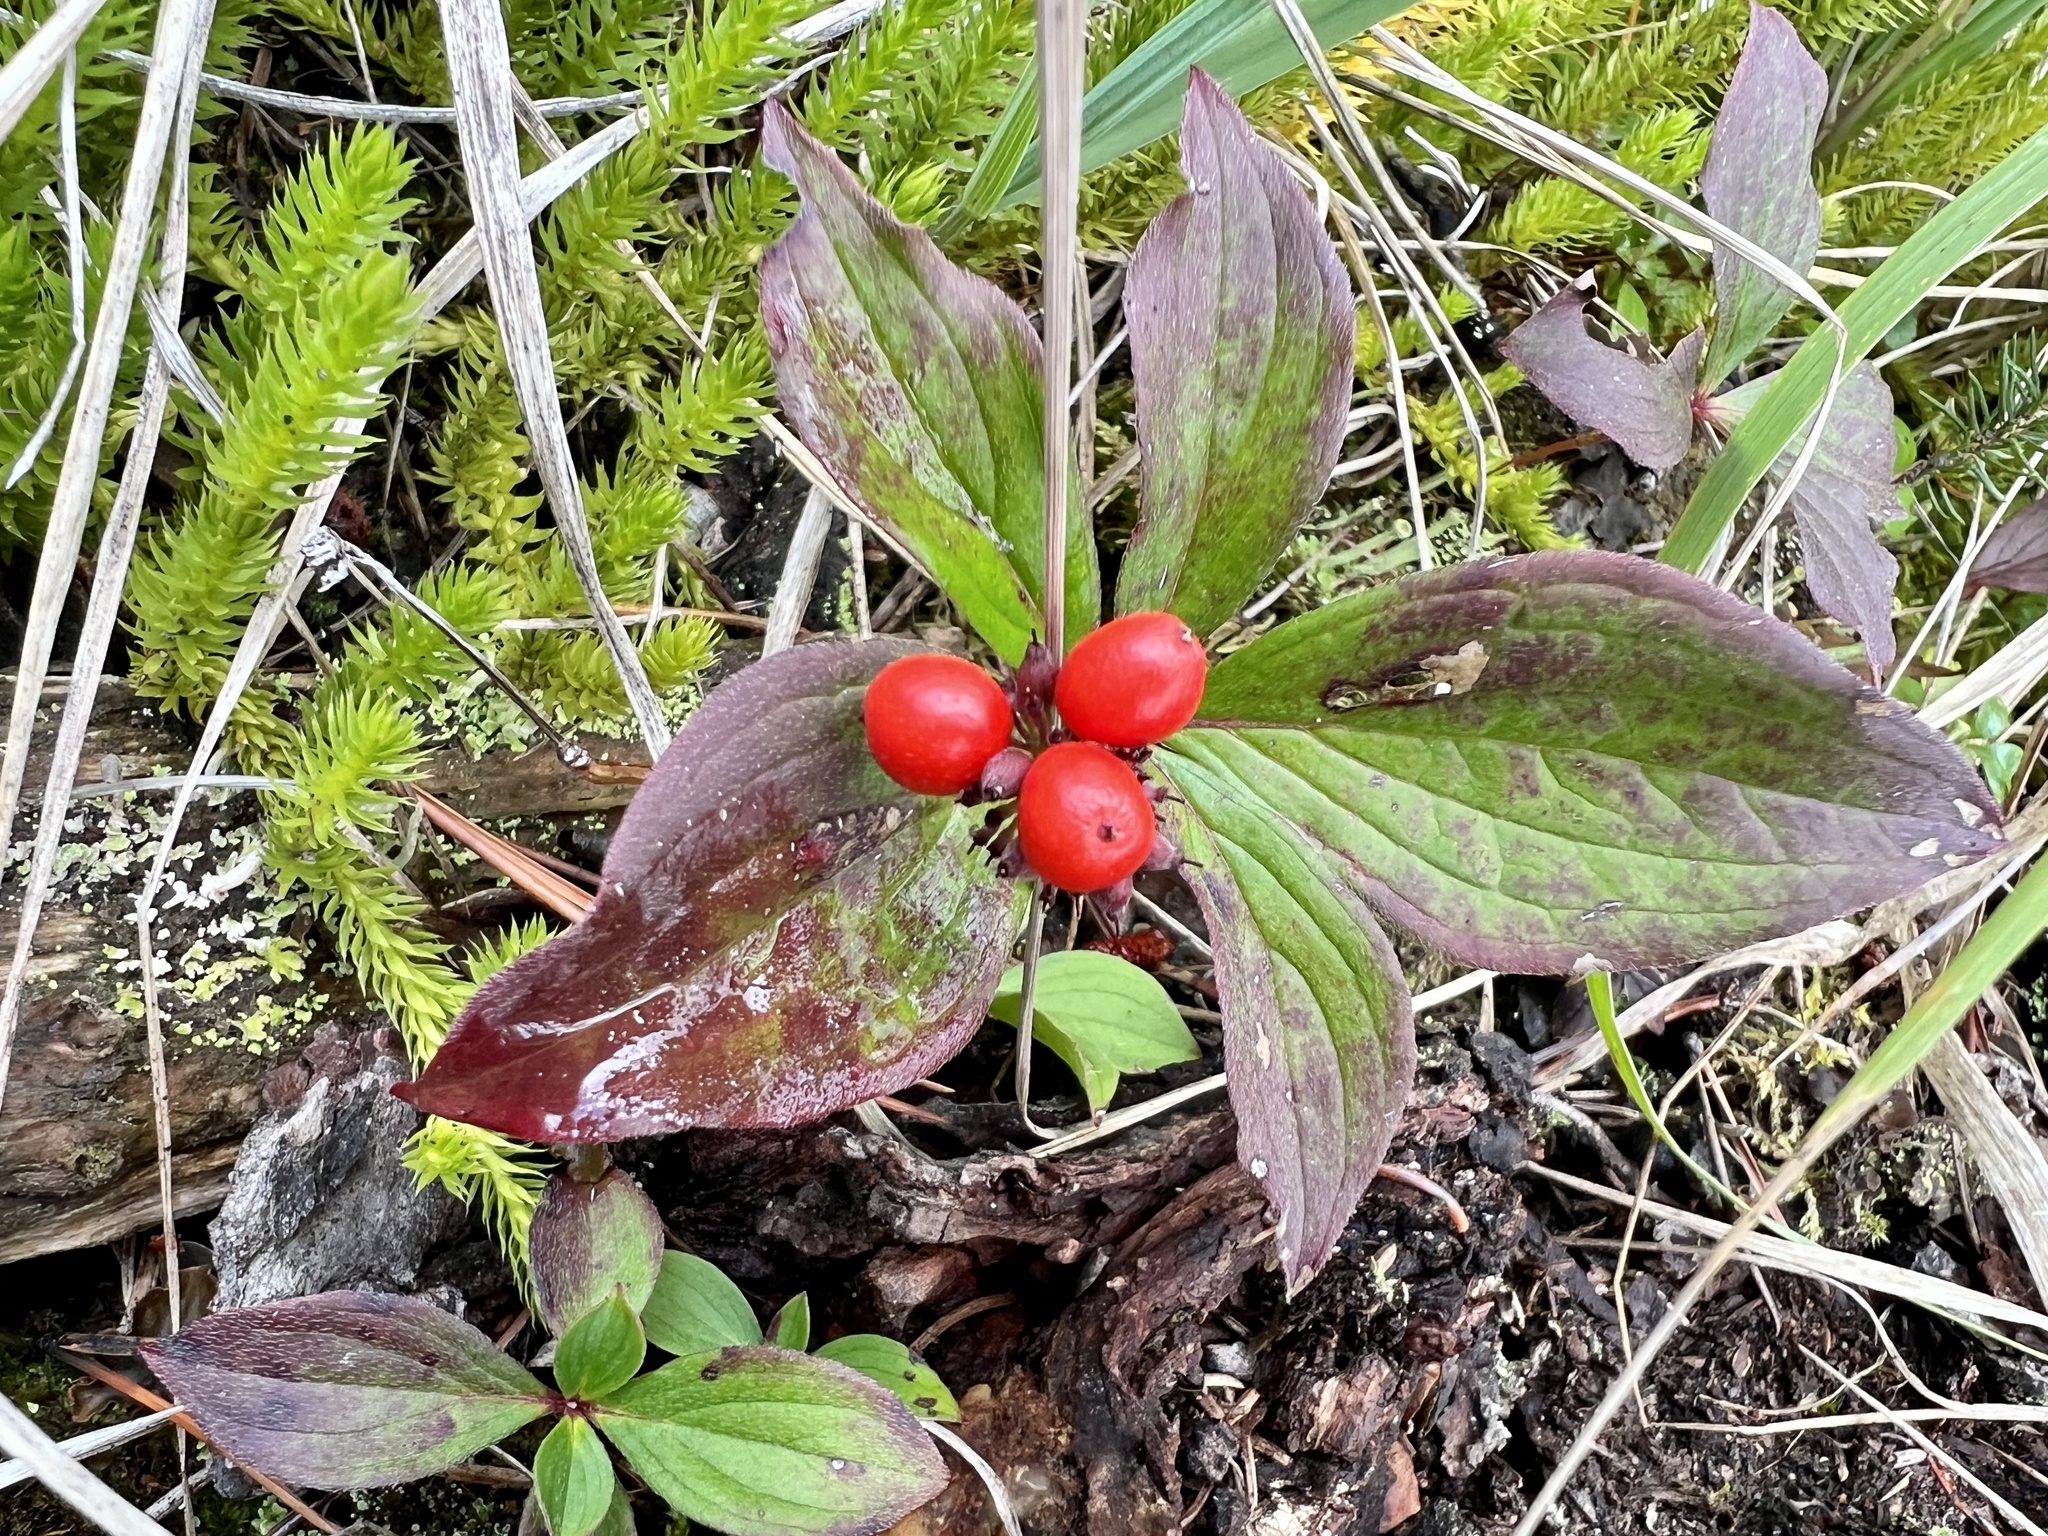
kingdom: Plantae
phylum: Tracheophyta
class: Magnoliopsida
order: Cornales
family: Cornaceae
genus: Cornus
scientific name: Cornus canadensis
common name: Creeping dogwood
